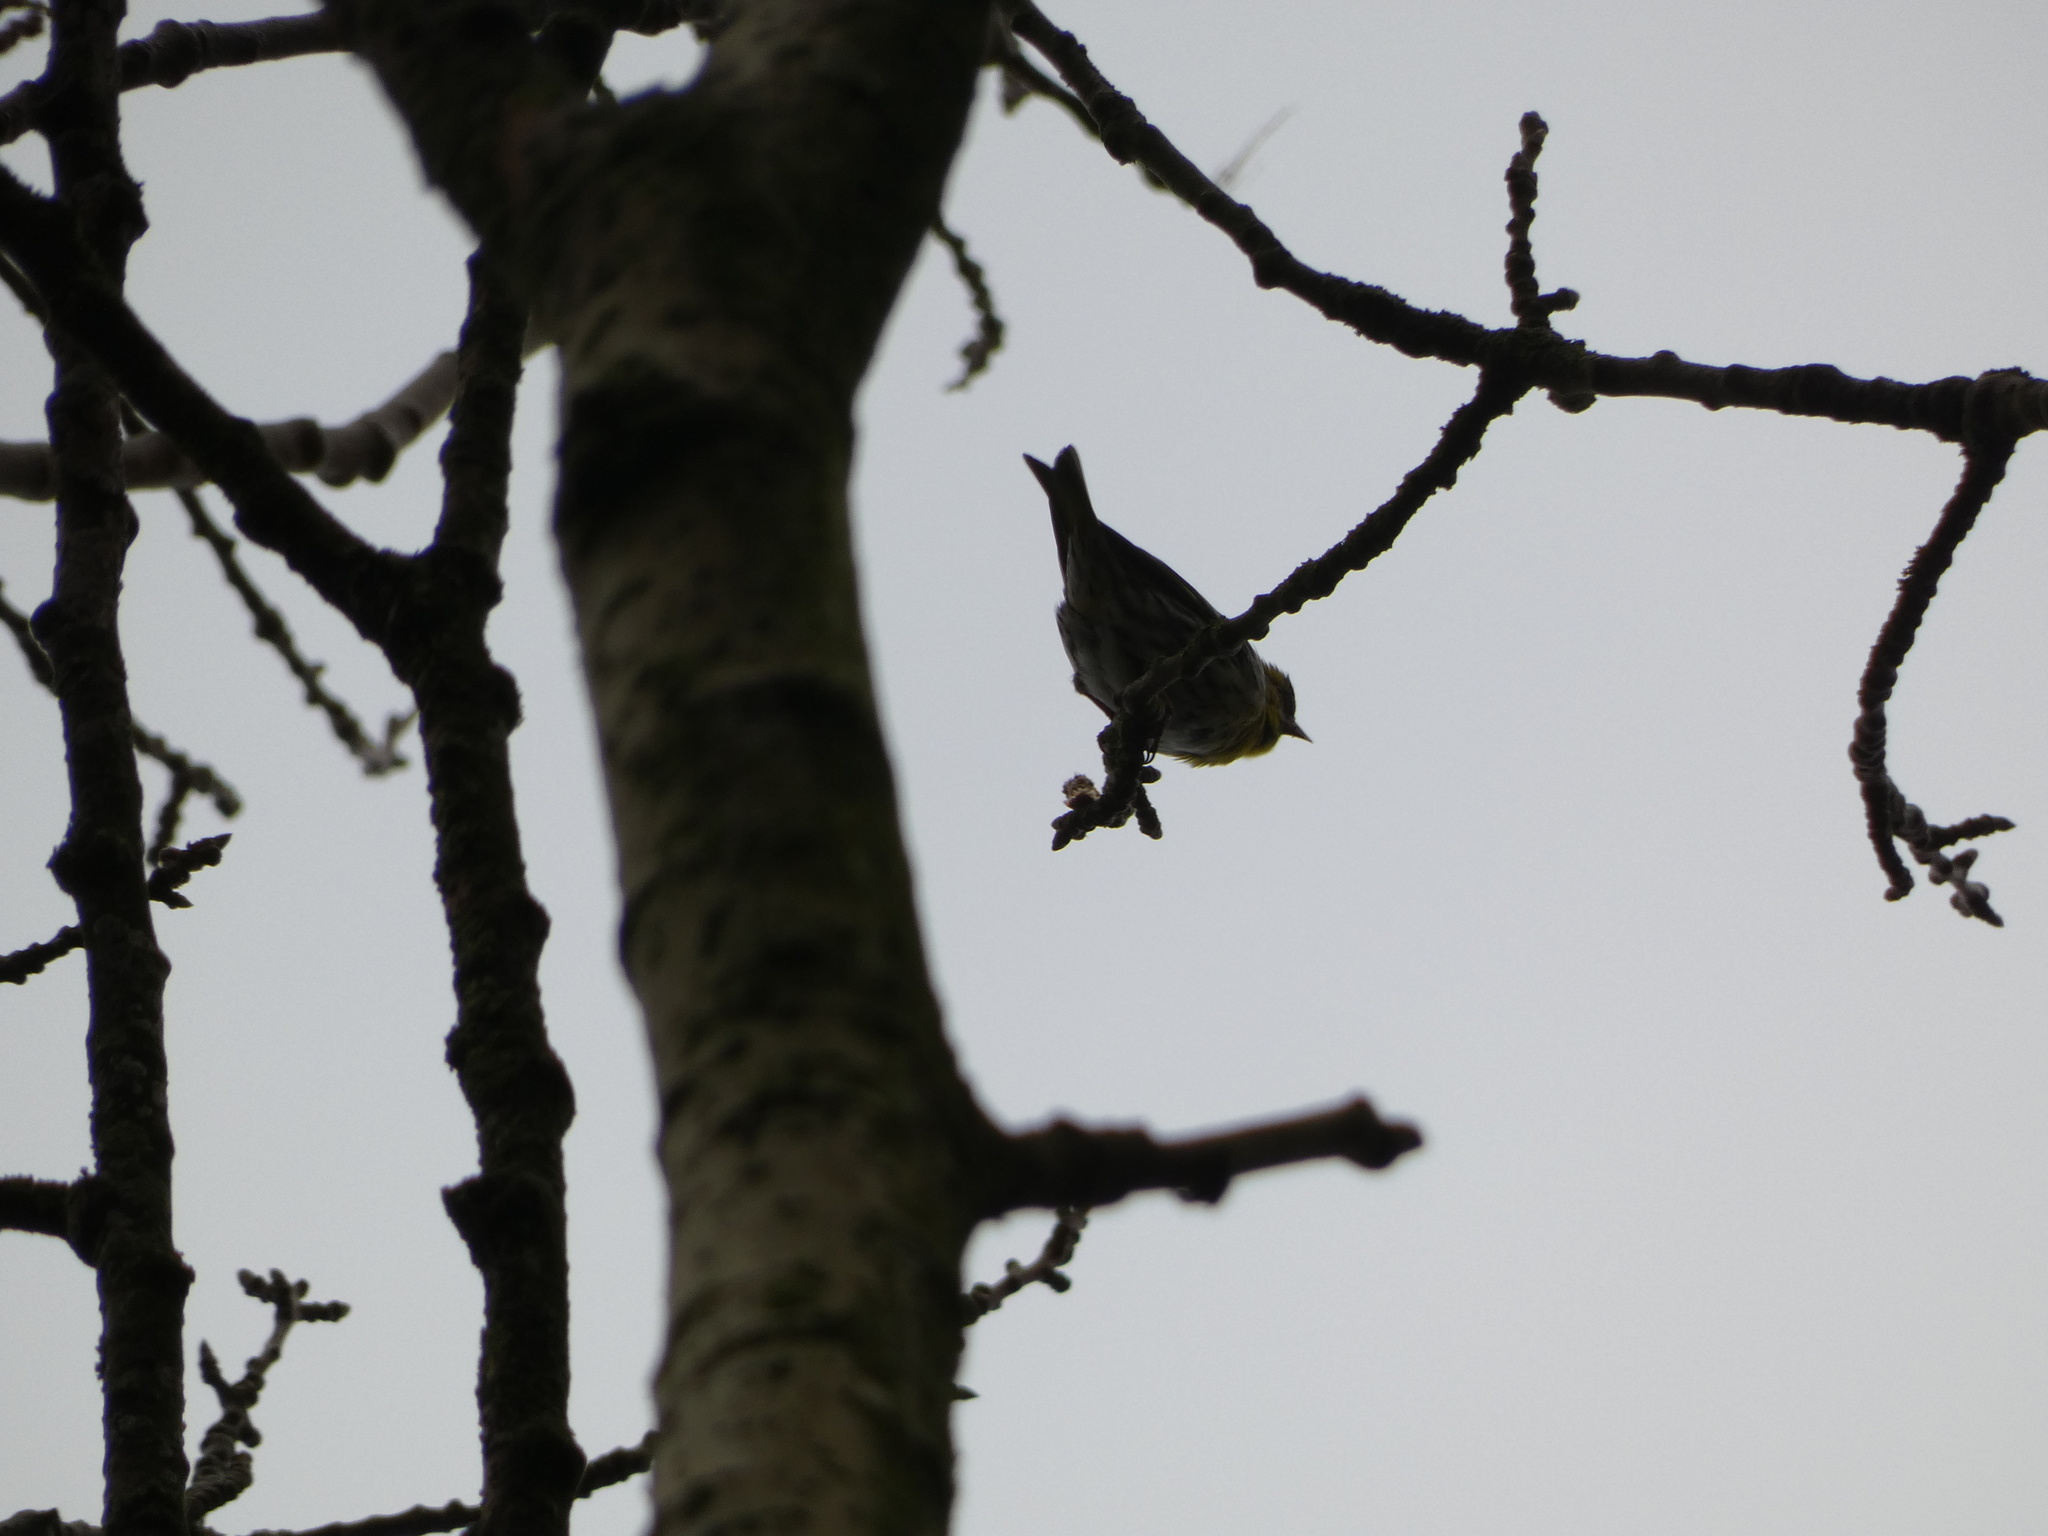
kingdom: Animalia
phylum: Chordata
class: Aves
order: Passeriformes
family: Fringillidae
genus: Spinus
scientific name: Spinus spinus
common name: Eurasian siskin
